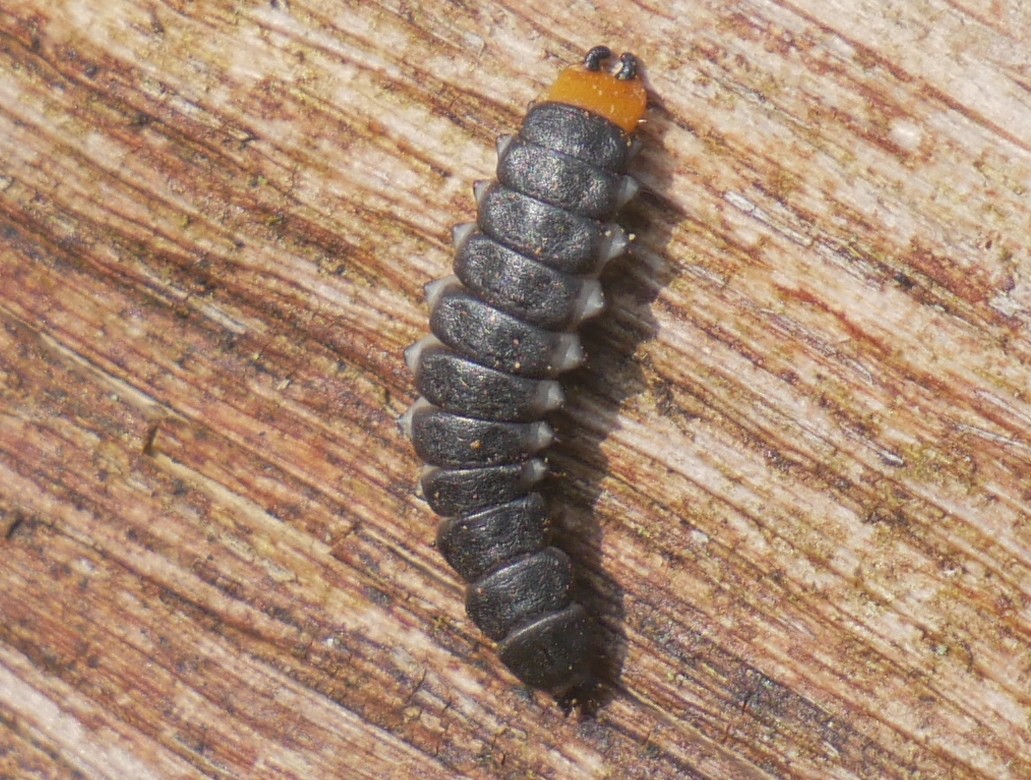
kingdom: Animalia
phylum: Arthropoda
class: Insecta
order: Coleoptera
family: Lycidae
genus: Lygistopterus
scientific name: Lygistopterus sanguineus
